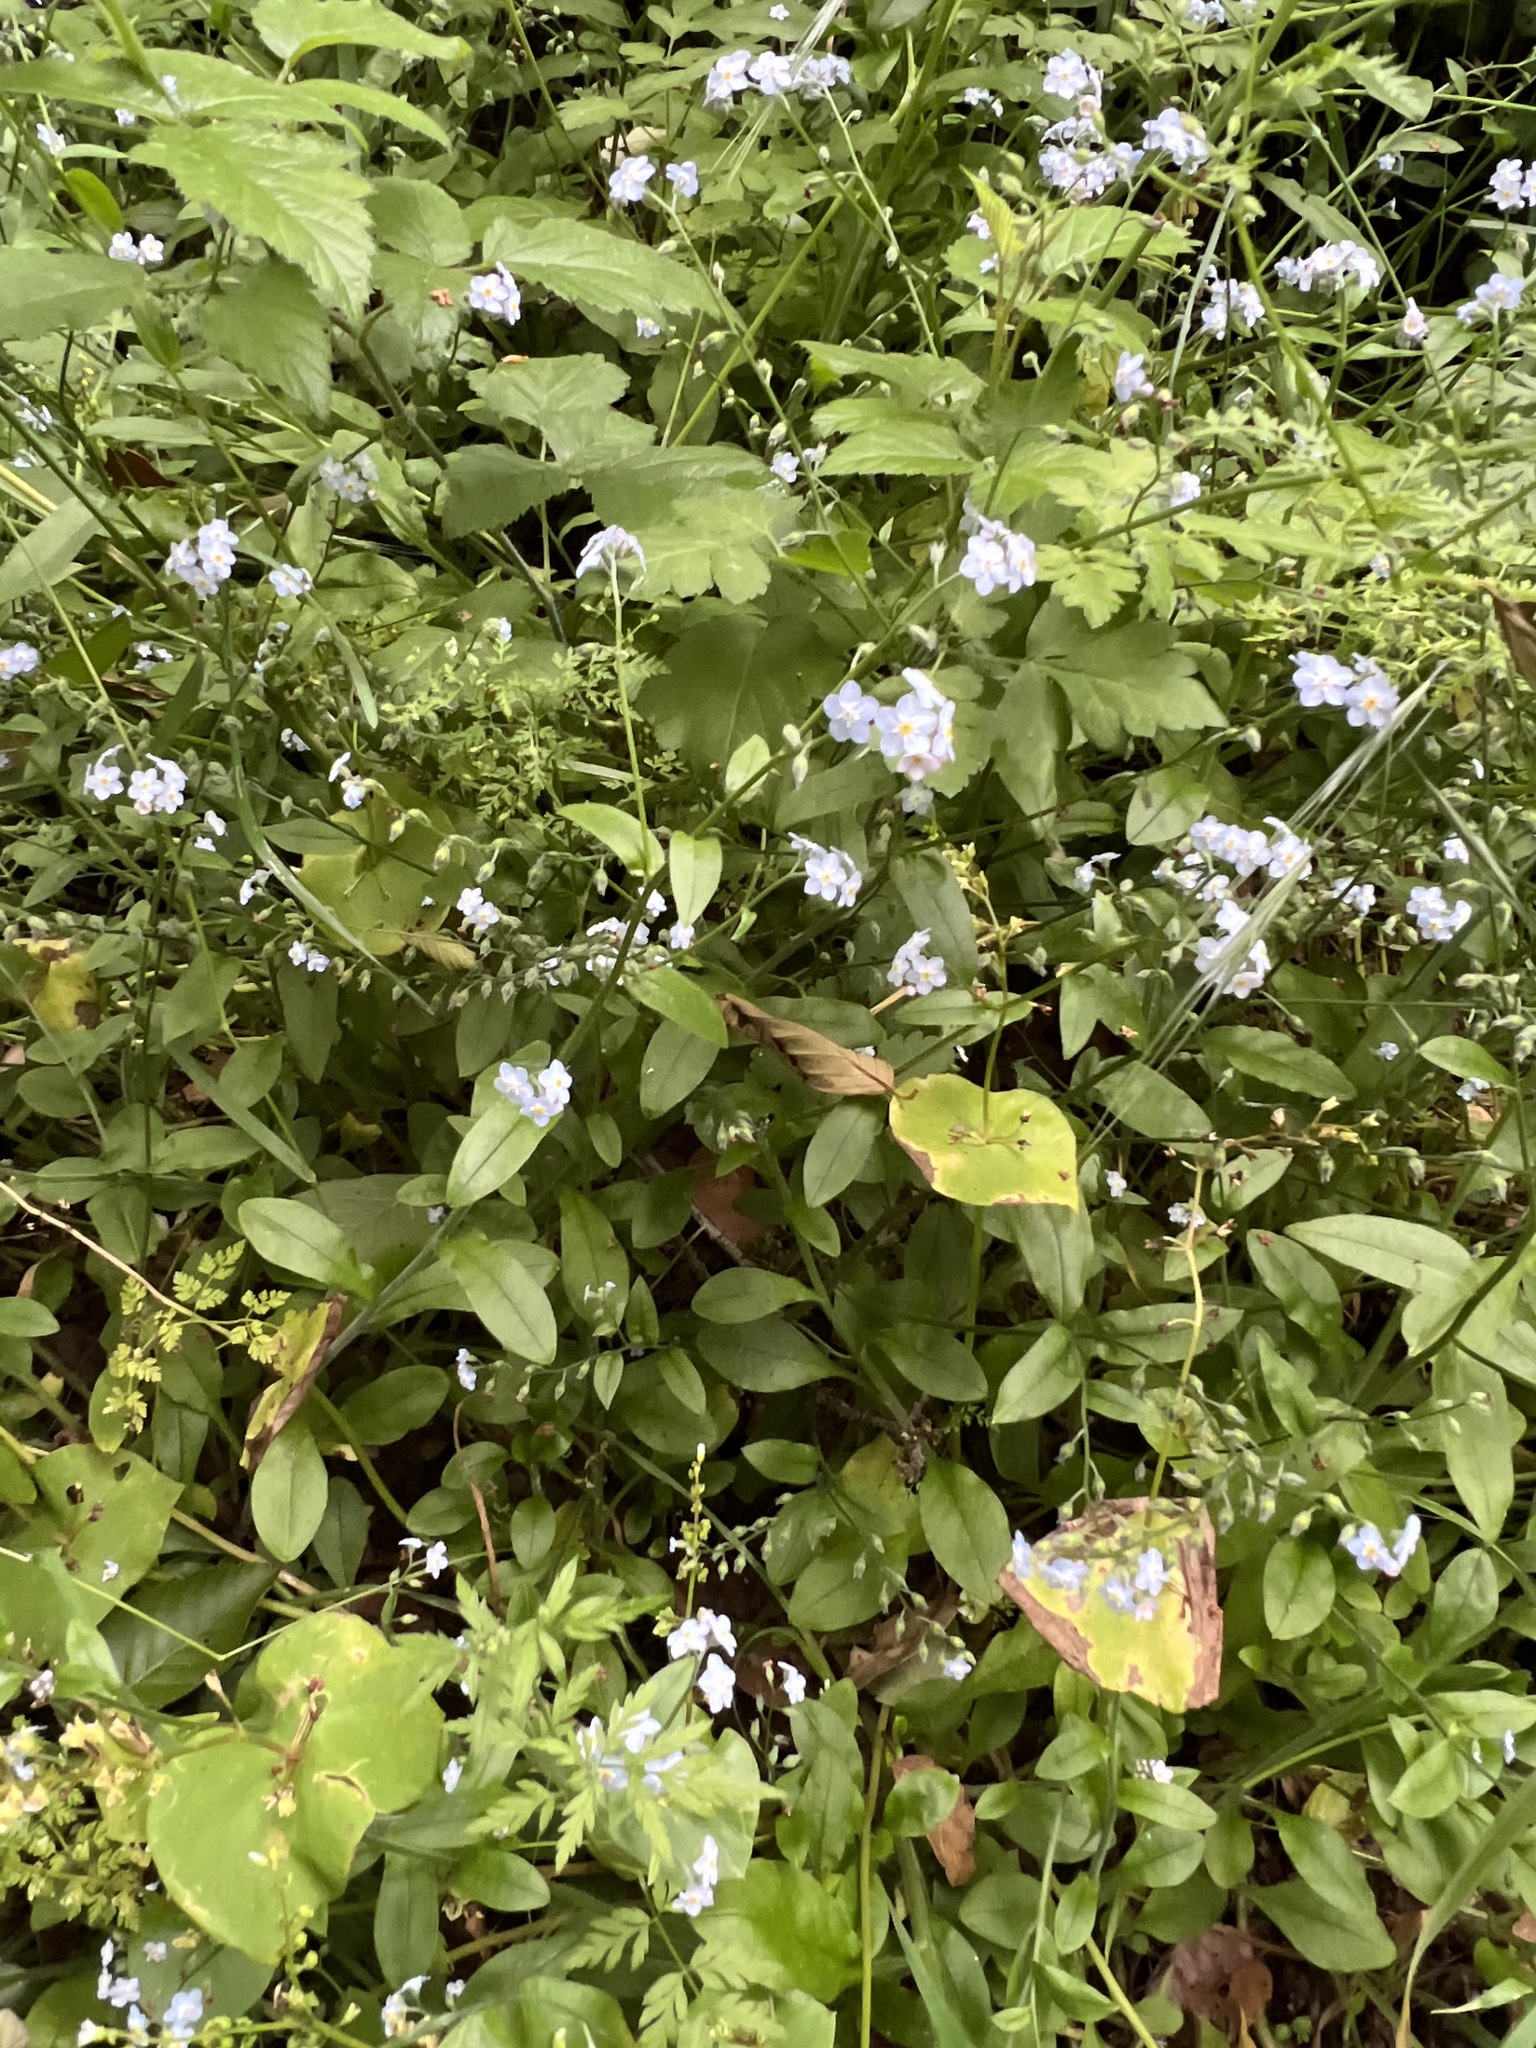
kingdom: Plantae
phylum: Tracheophyta
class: Magnoliopsida
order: Boraginales
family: Boraginaceae
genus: Myosotis
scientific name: Myosotis latifolia
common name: Broadleaf forget-me-not
